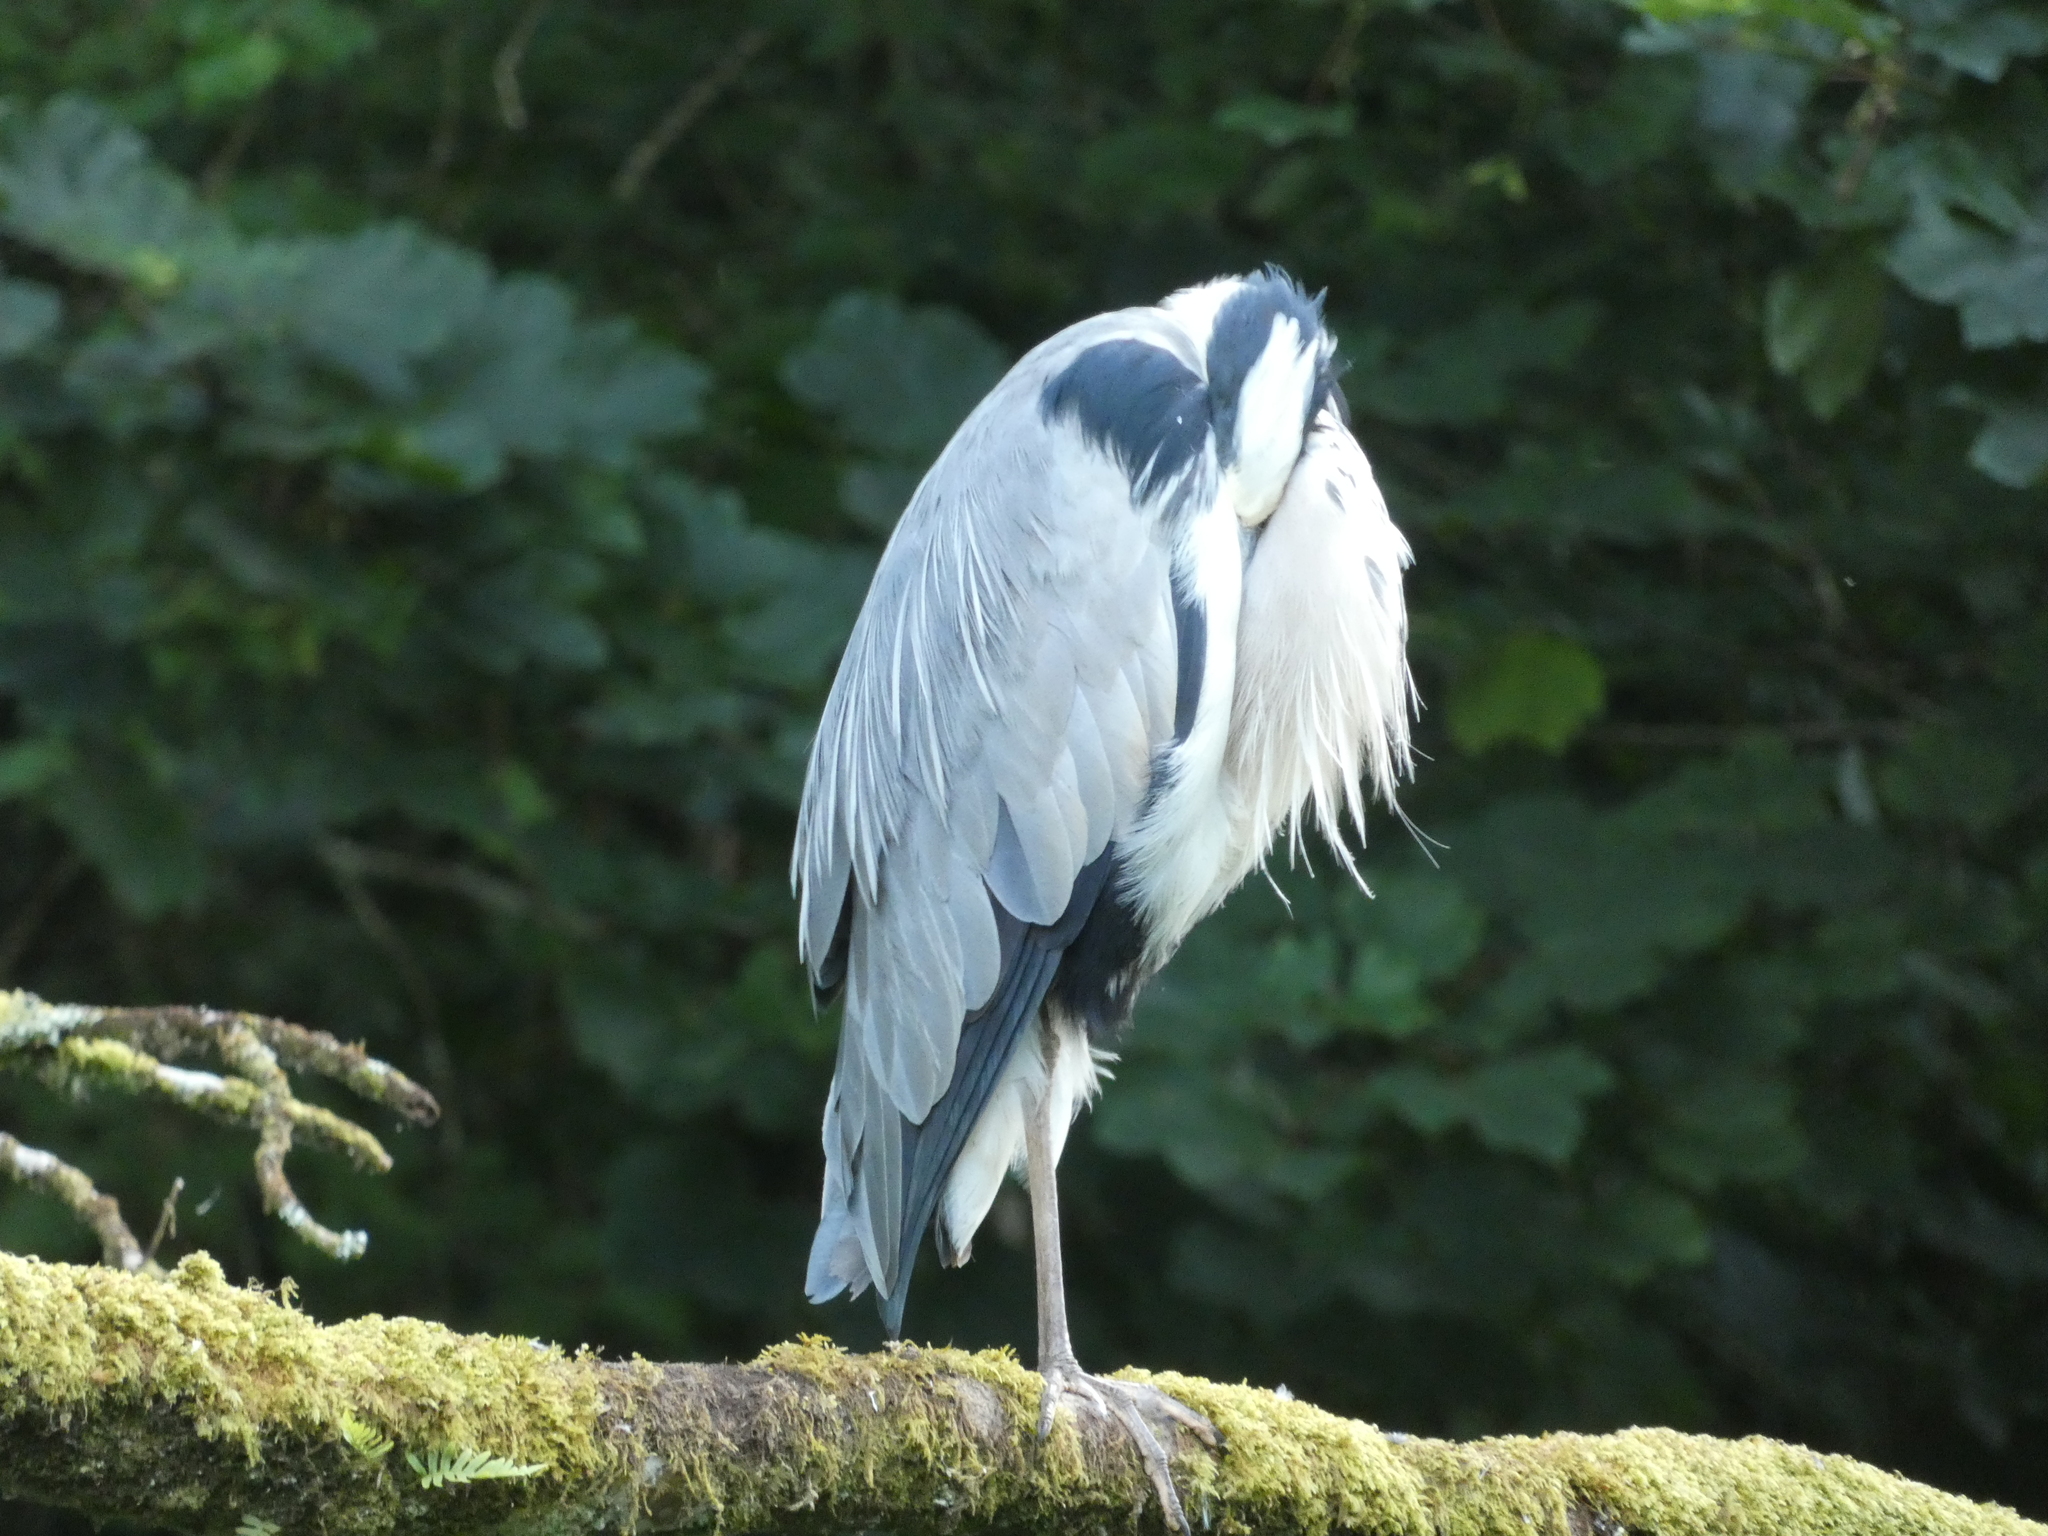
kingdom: Animalia
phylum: Chordata
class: Aves
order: Pelecaniformes
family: Ardeidae
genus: Ardea
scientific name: Ardea cinerea
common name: Grey heron
